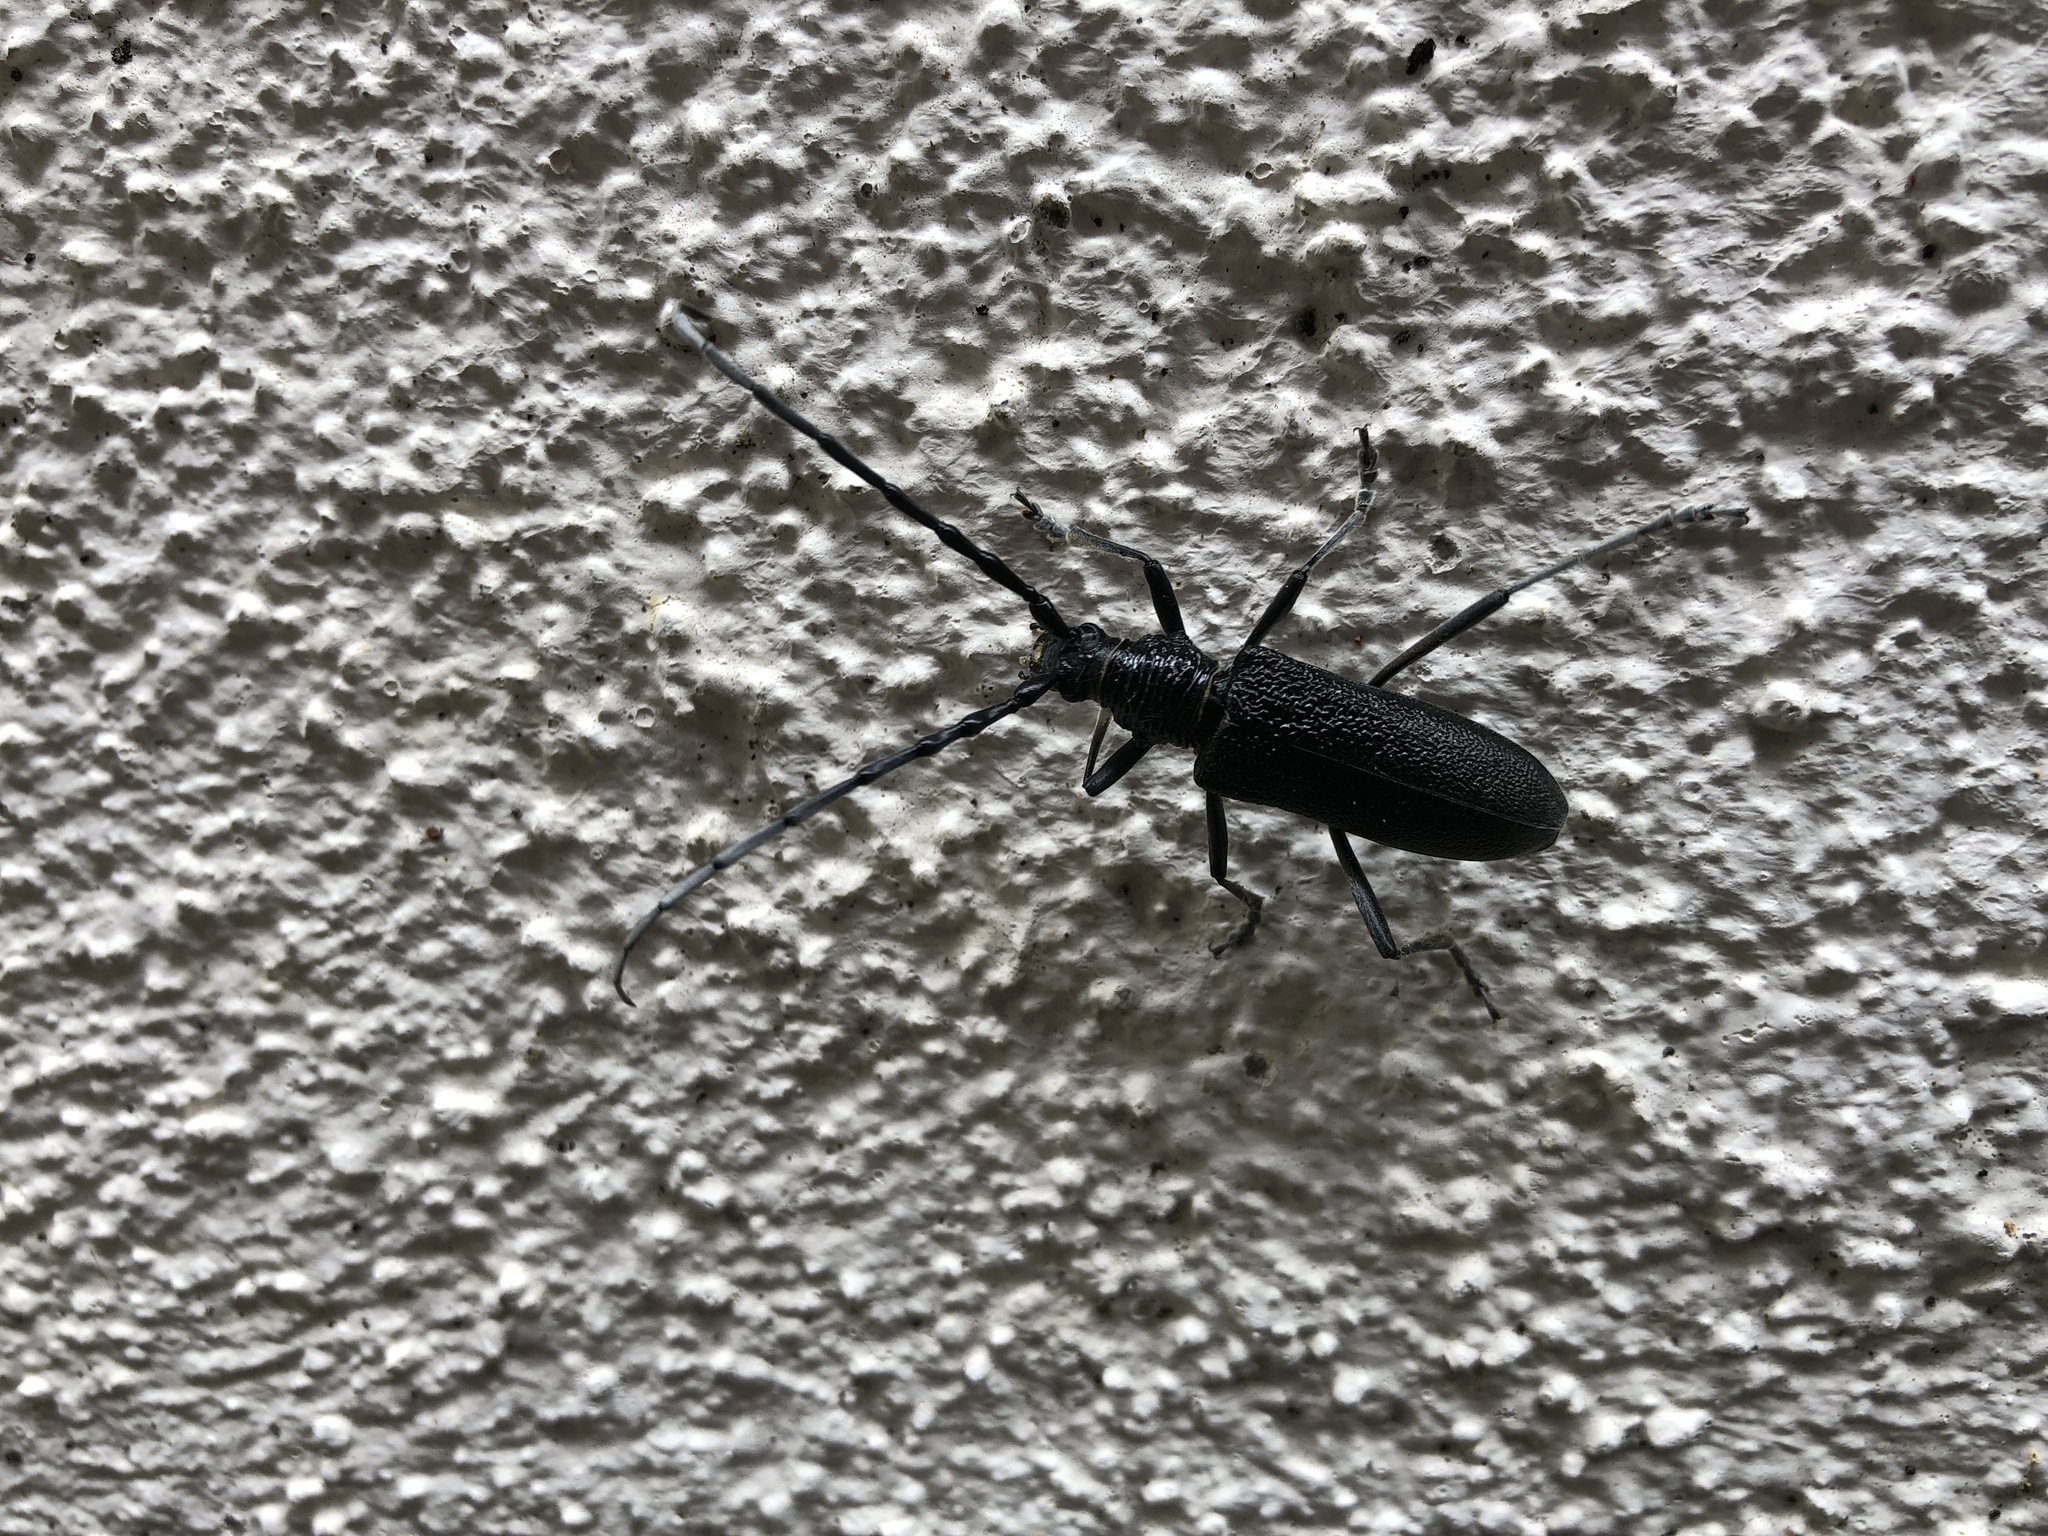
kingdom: Animalia
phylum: Arthropoda
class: Insecta
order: Coleoptera
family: Cerambycidae
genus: Cerambyx
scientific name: Cerambyx scopolii
